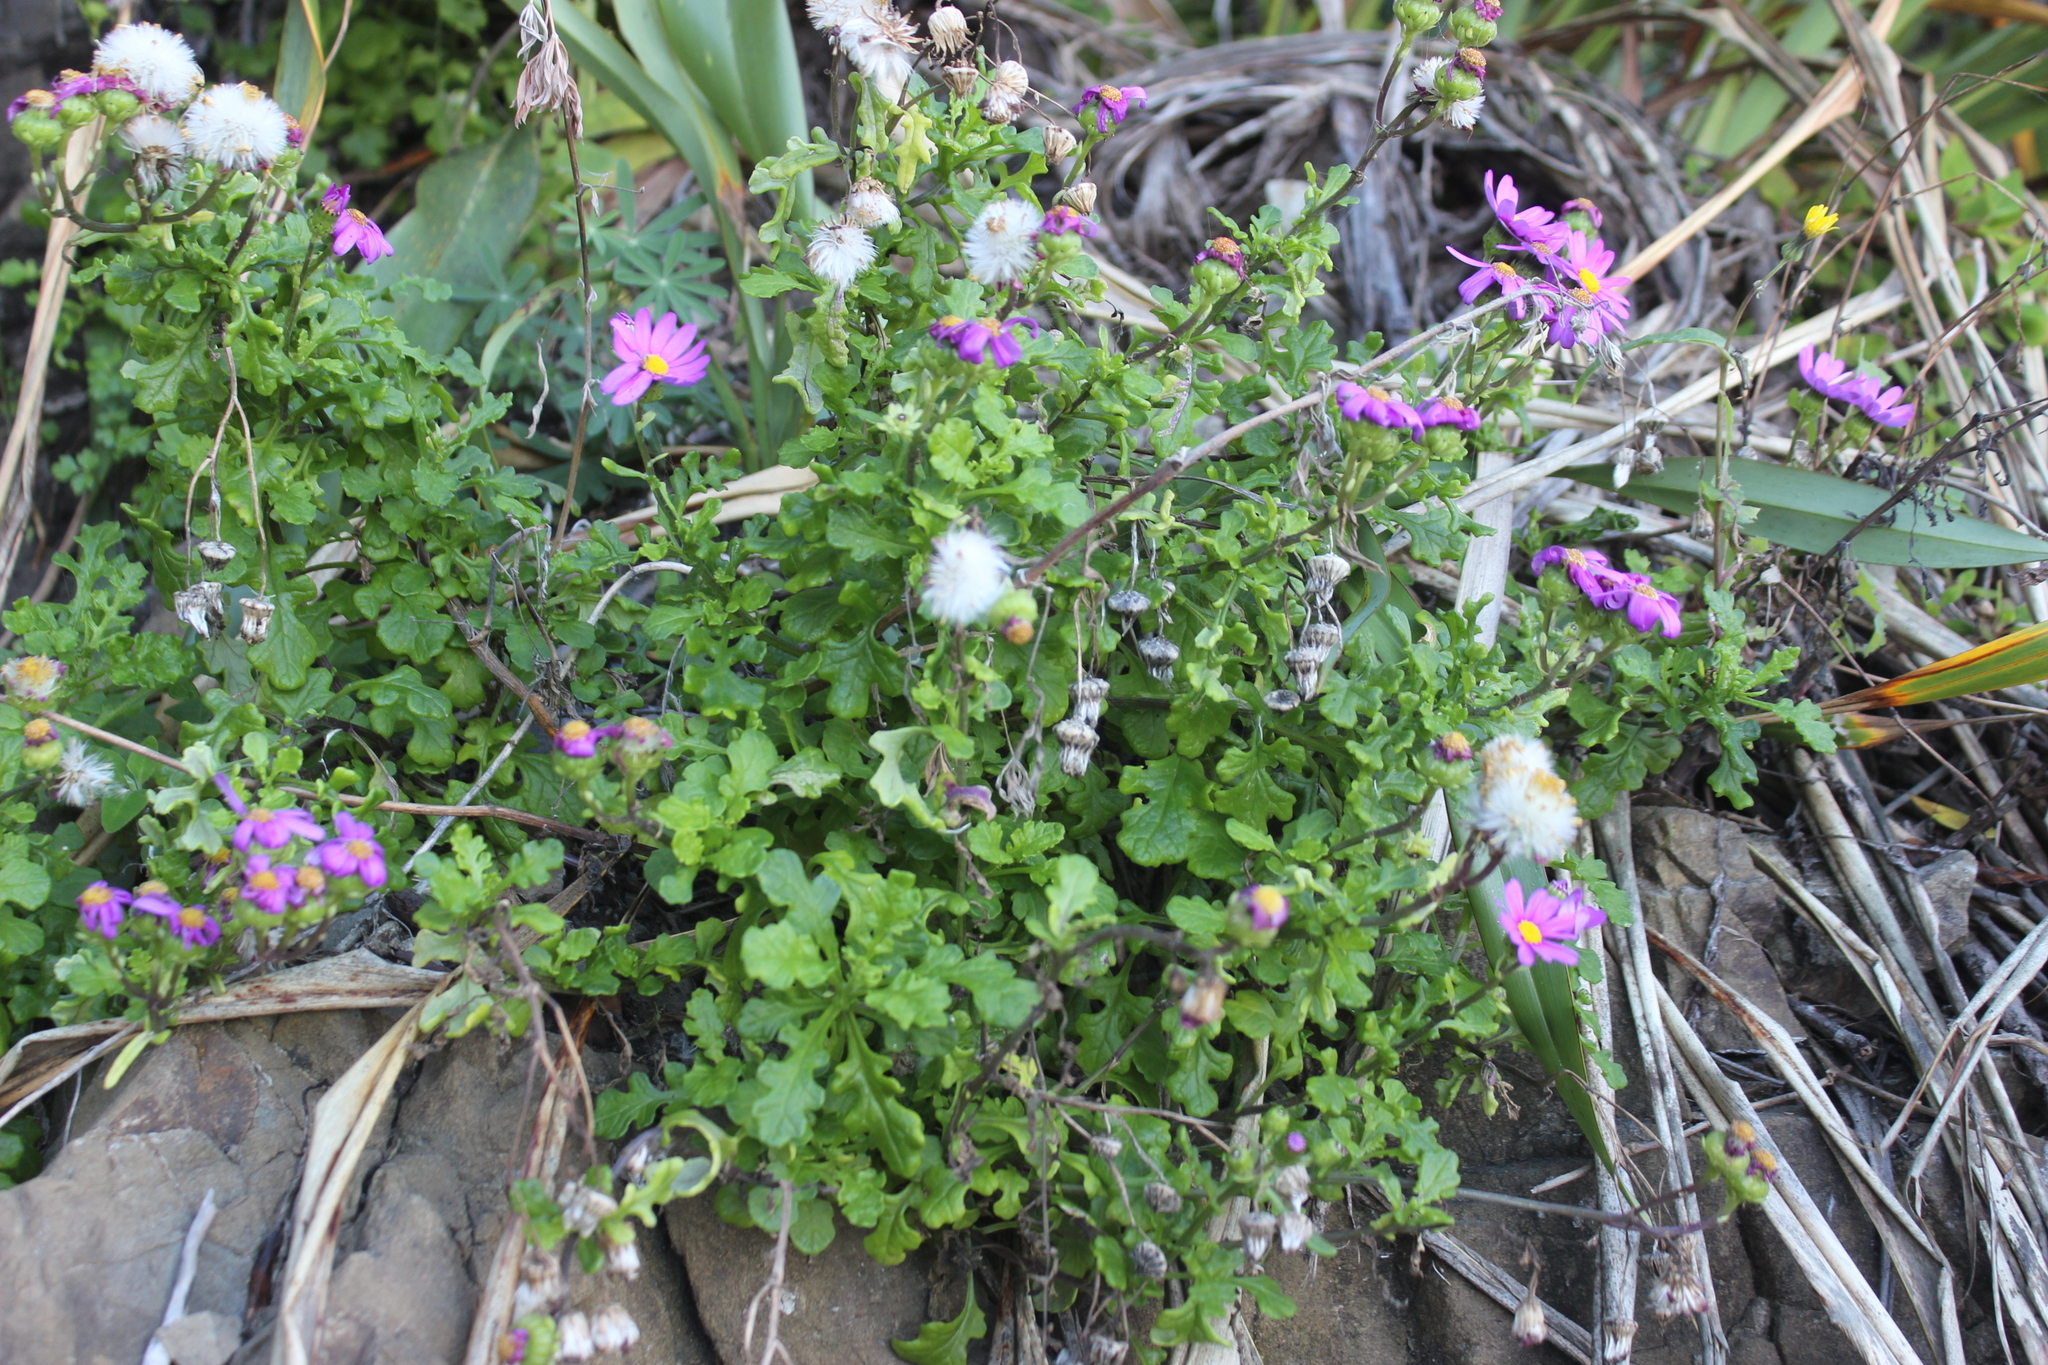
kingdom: Plantae
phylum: Tracheophyta
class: Magnoliopsida
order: Asterales
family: Asteraceae
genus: Senecio
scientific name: Senecio elegans
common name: Purple groundsel
